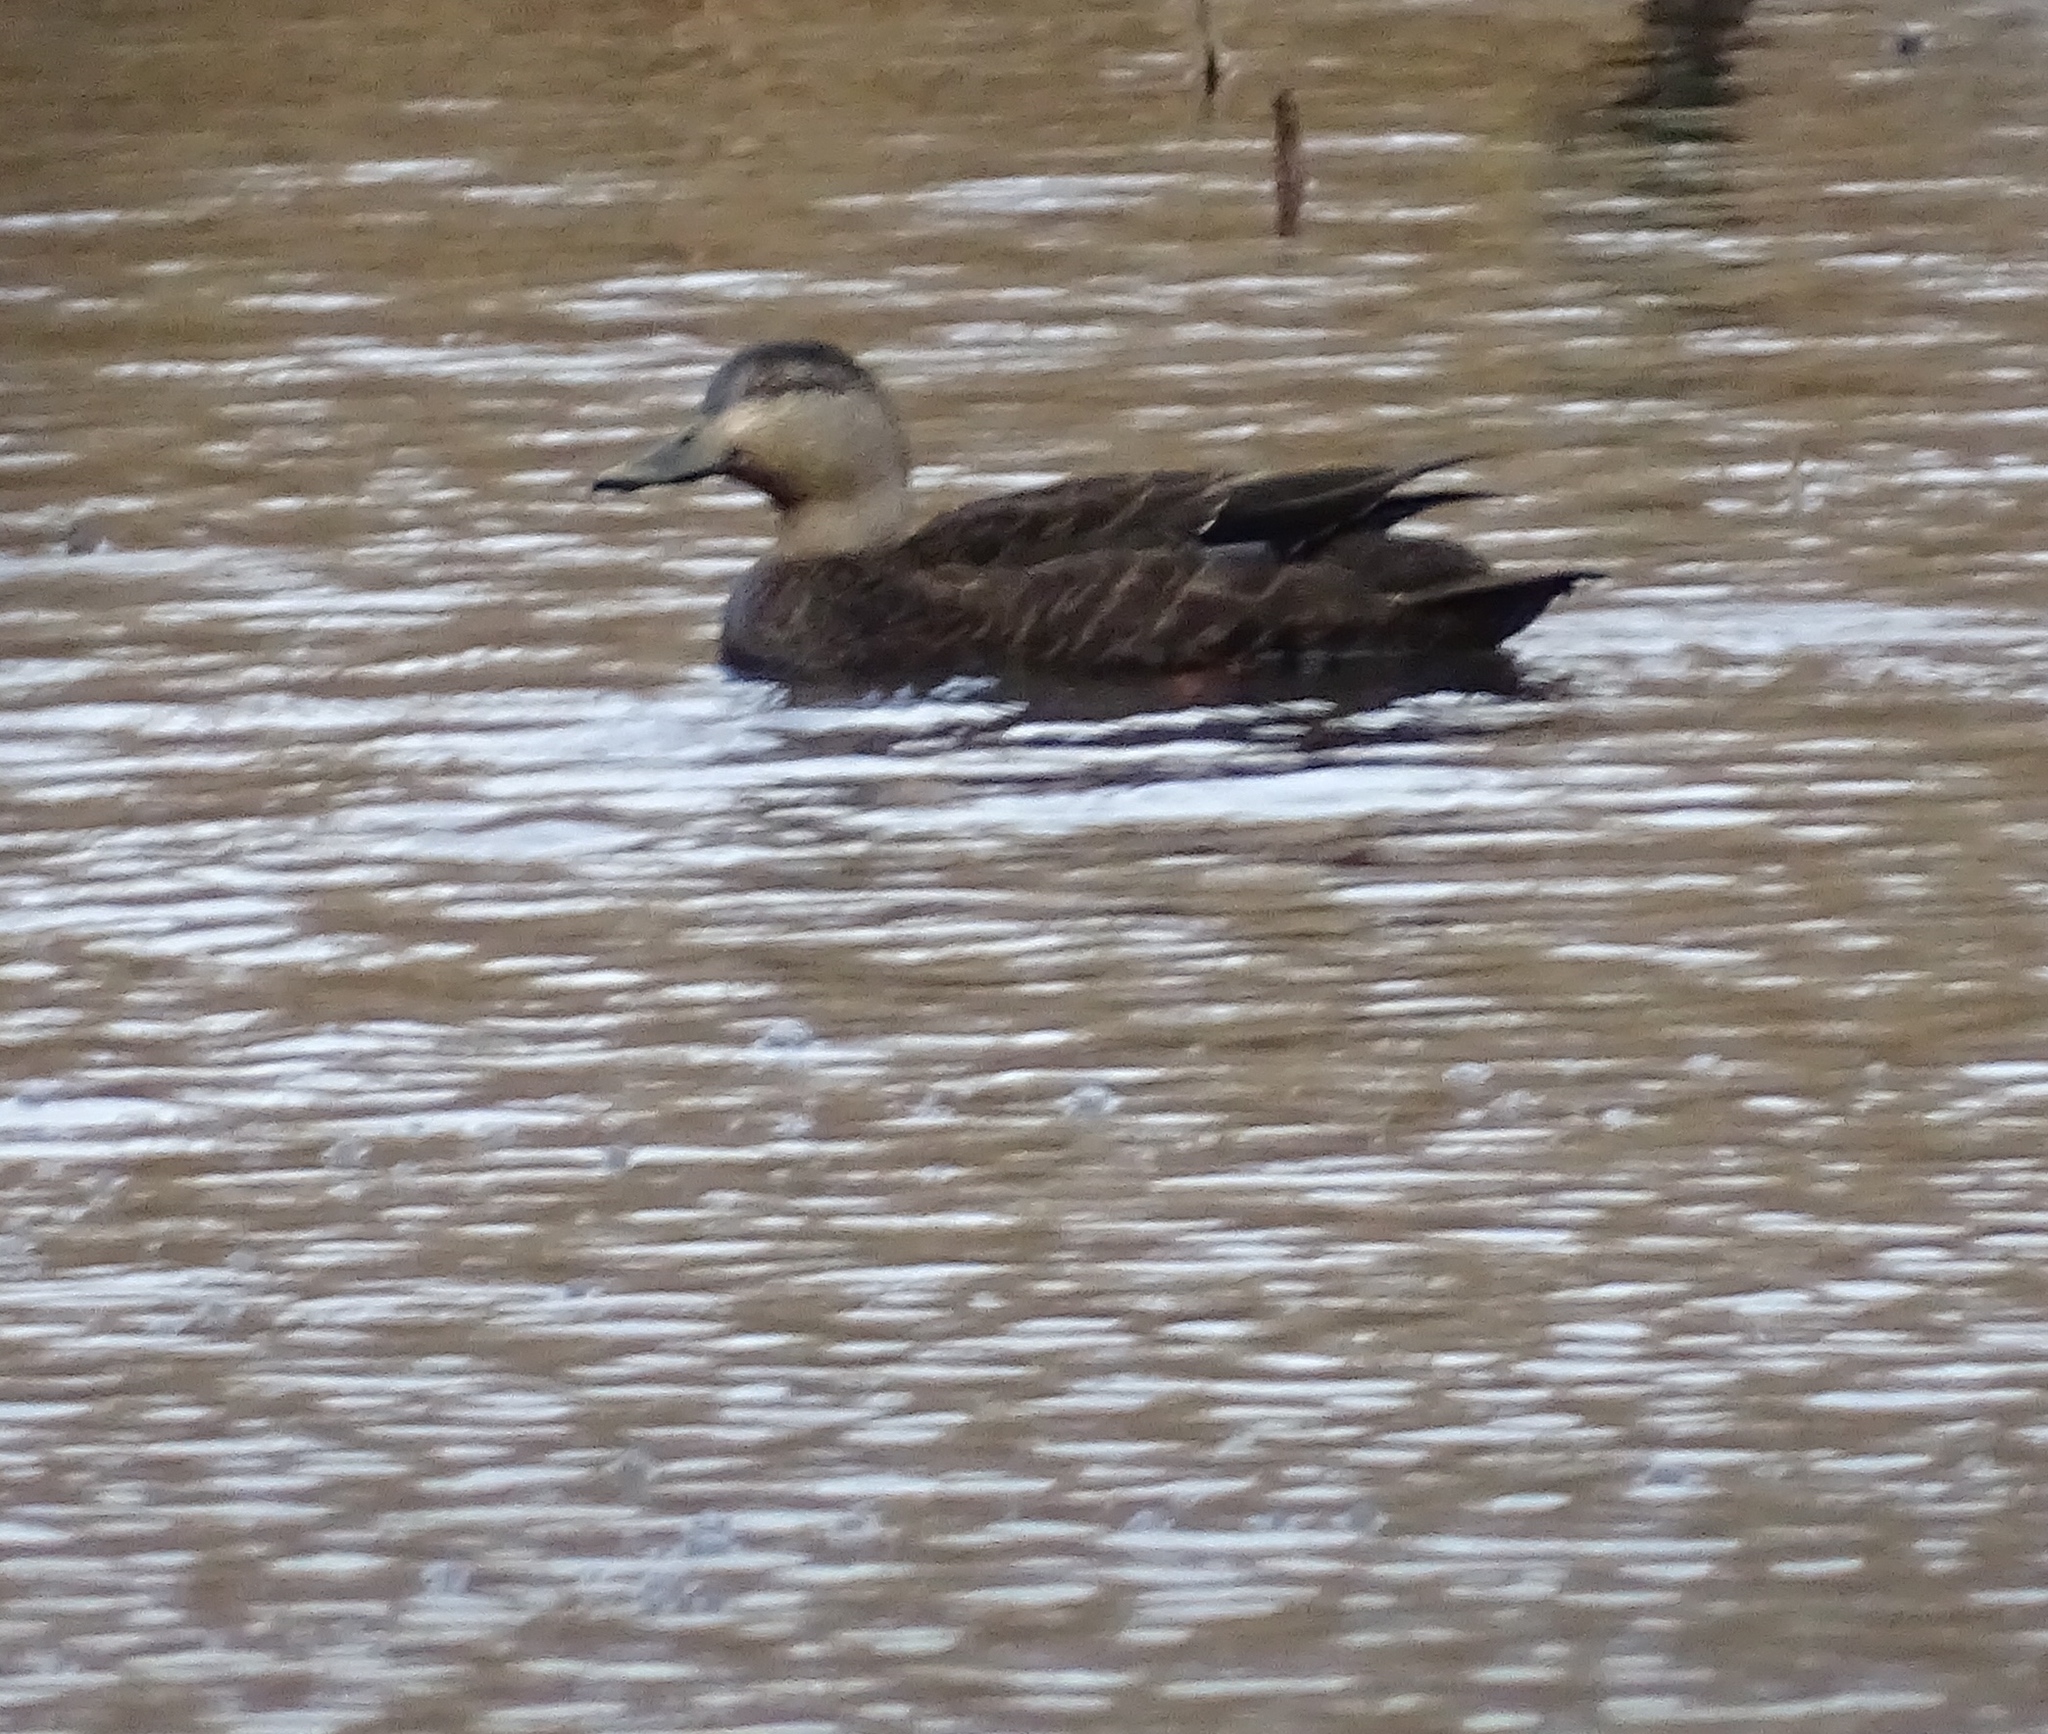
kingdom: Animalia
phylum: Chordata
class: Aves
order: Anseriformes
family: Anatidae
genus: Anas
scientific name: Anas rubripes
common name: American black duck
